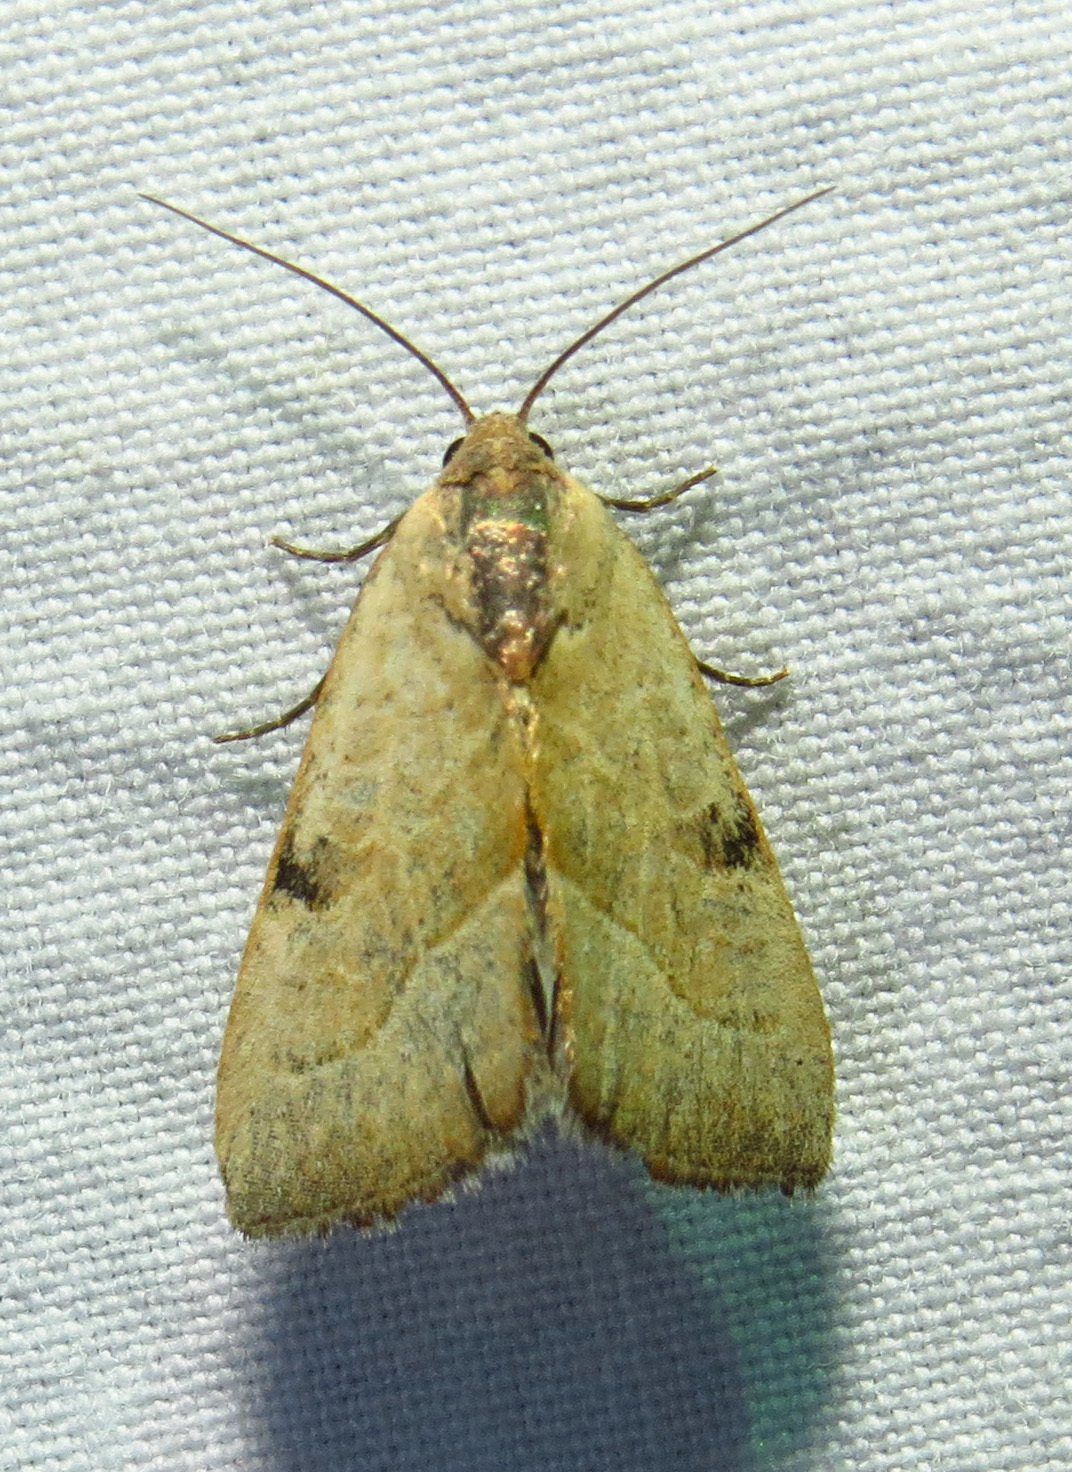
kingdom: Animalia
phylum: Arthropoda
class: Insecta
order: Lepidoptera
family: Noctuidae
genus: Galgula
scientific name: Galgula partita
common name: Wedgeling
